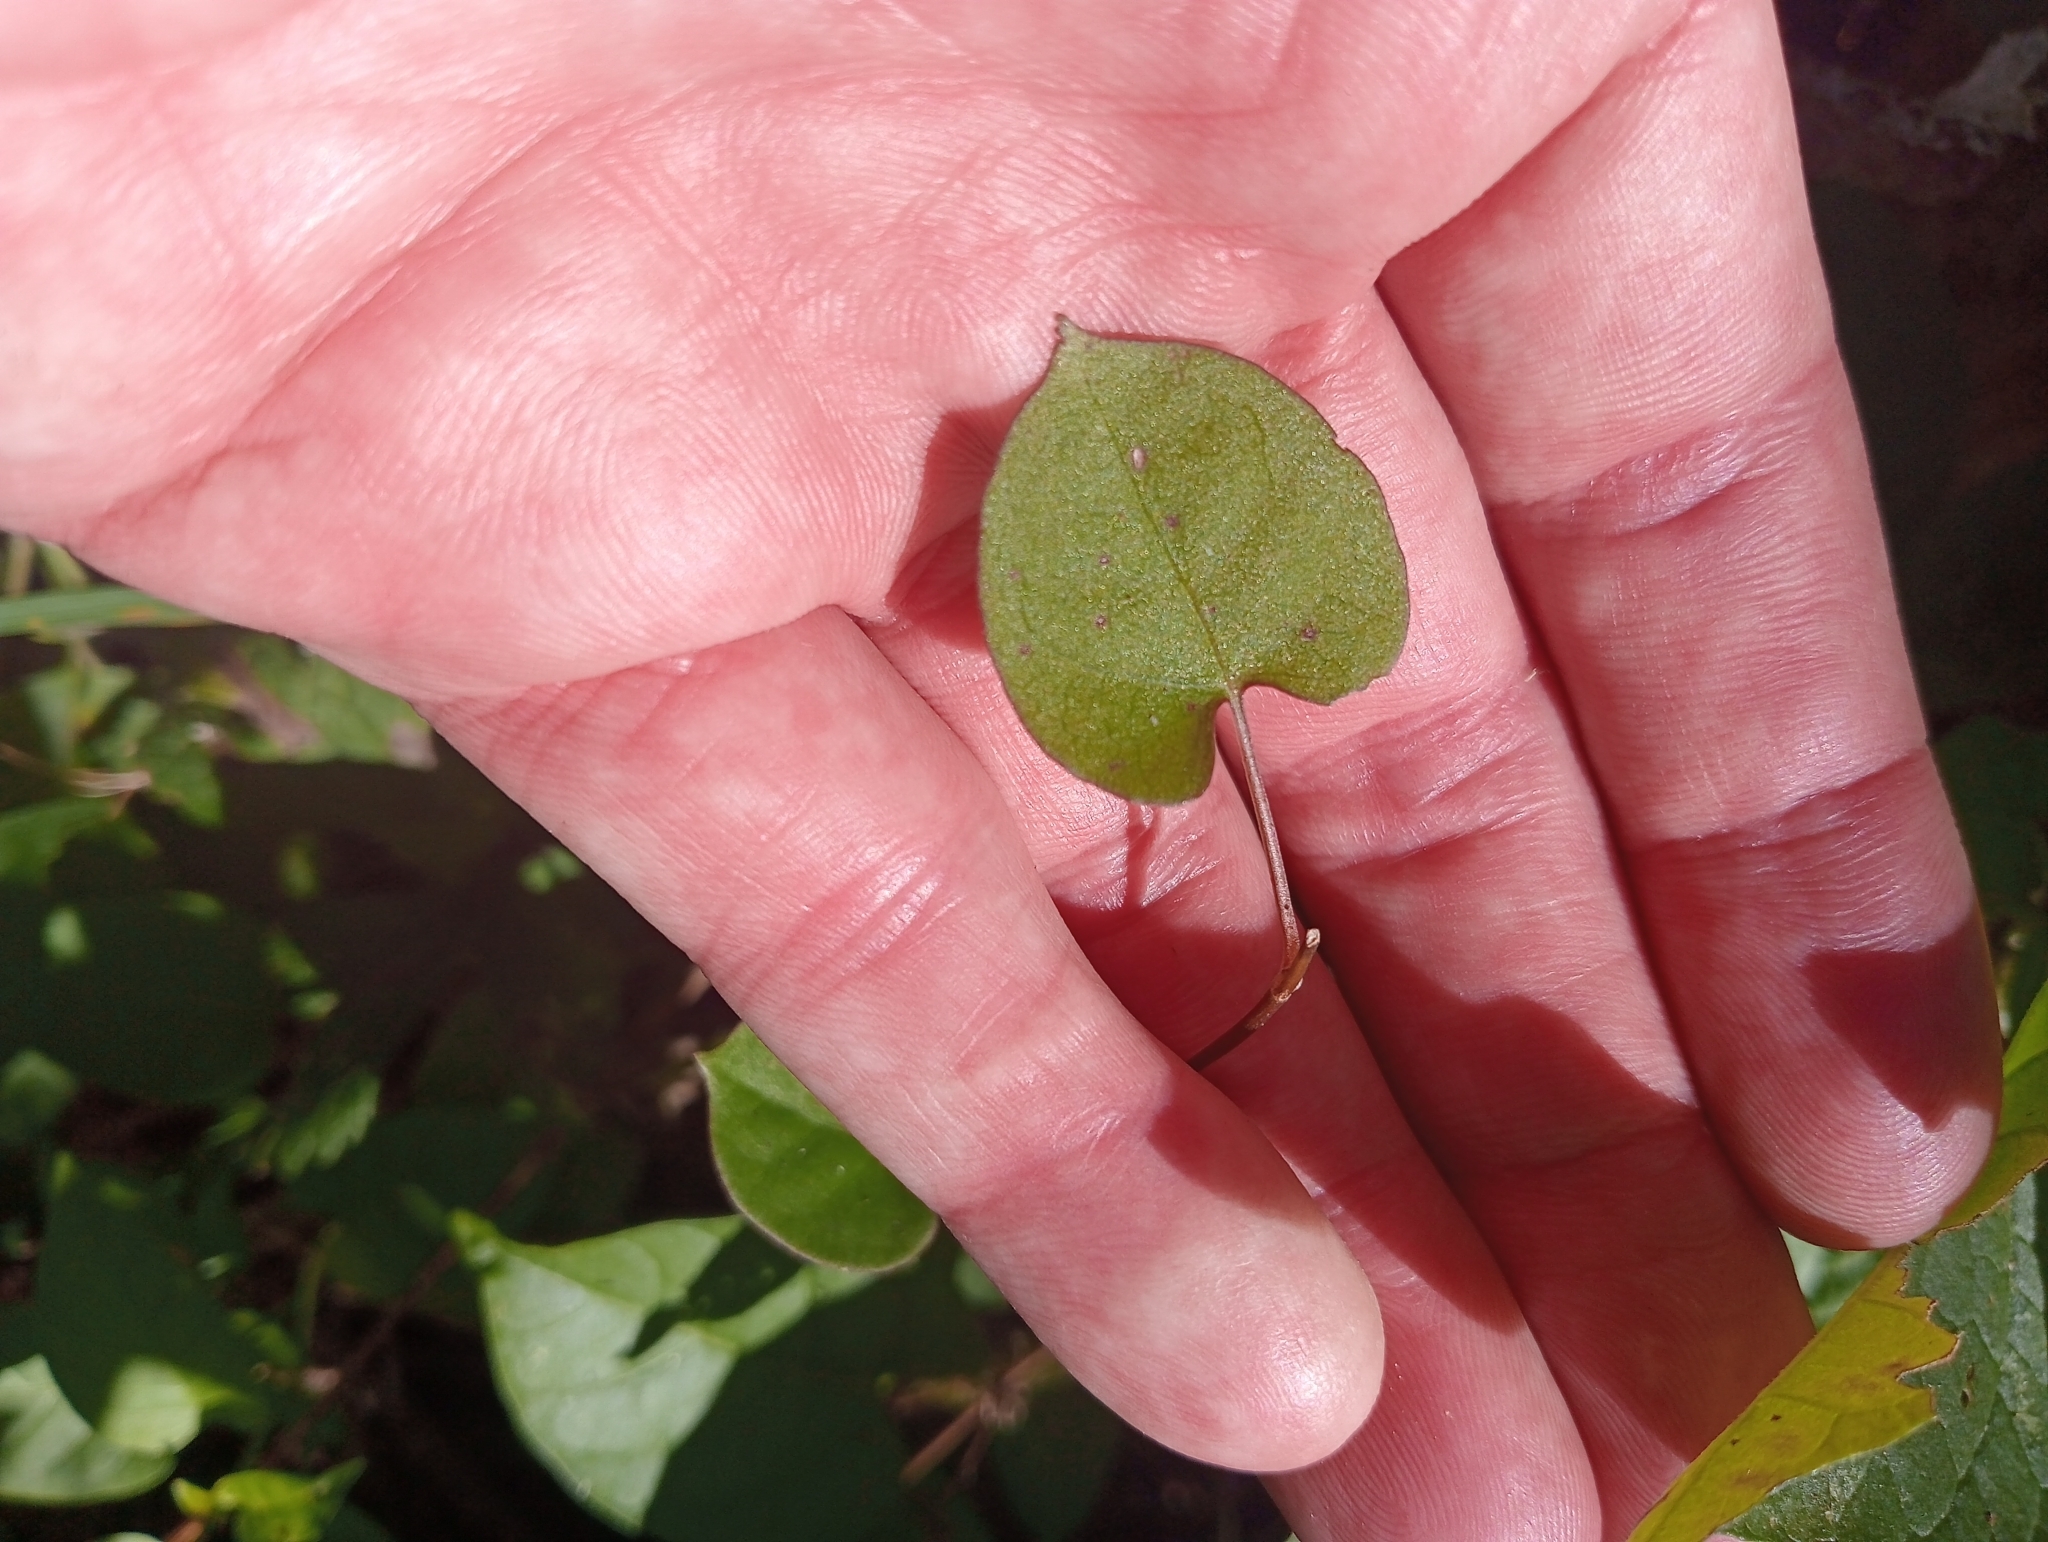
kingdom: Plantae
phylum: Tracheophyta
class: Magnoliopsida
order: Caryophyllales
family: Polygonaceae
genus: Muehlenbeckia
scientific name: Muehlenbeckia australis
